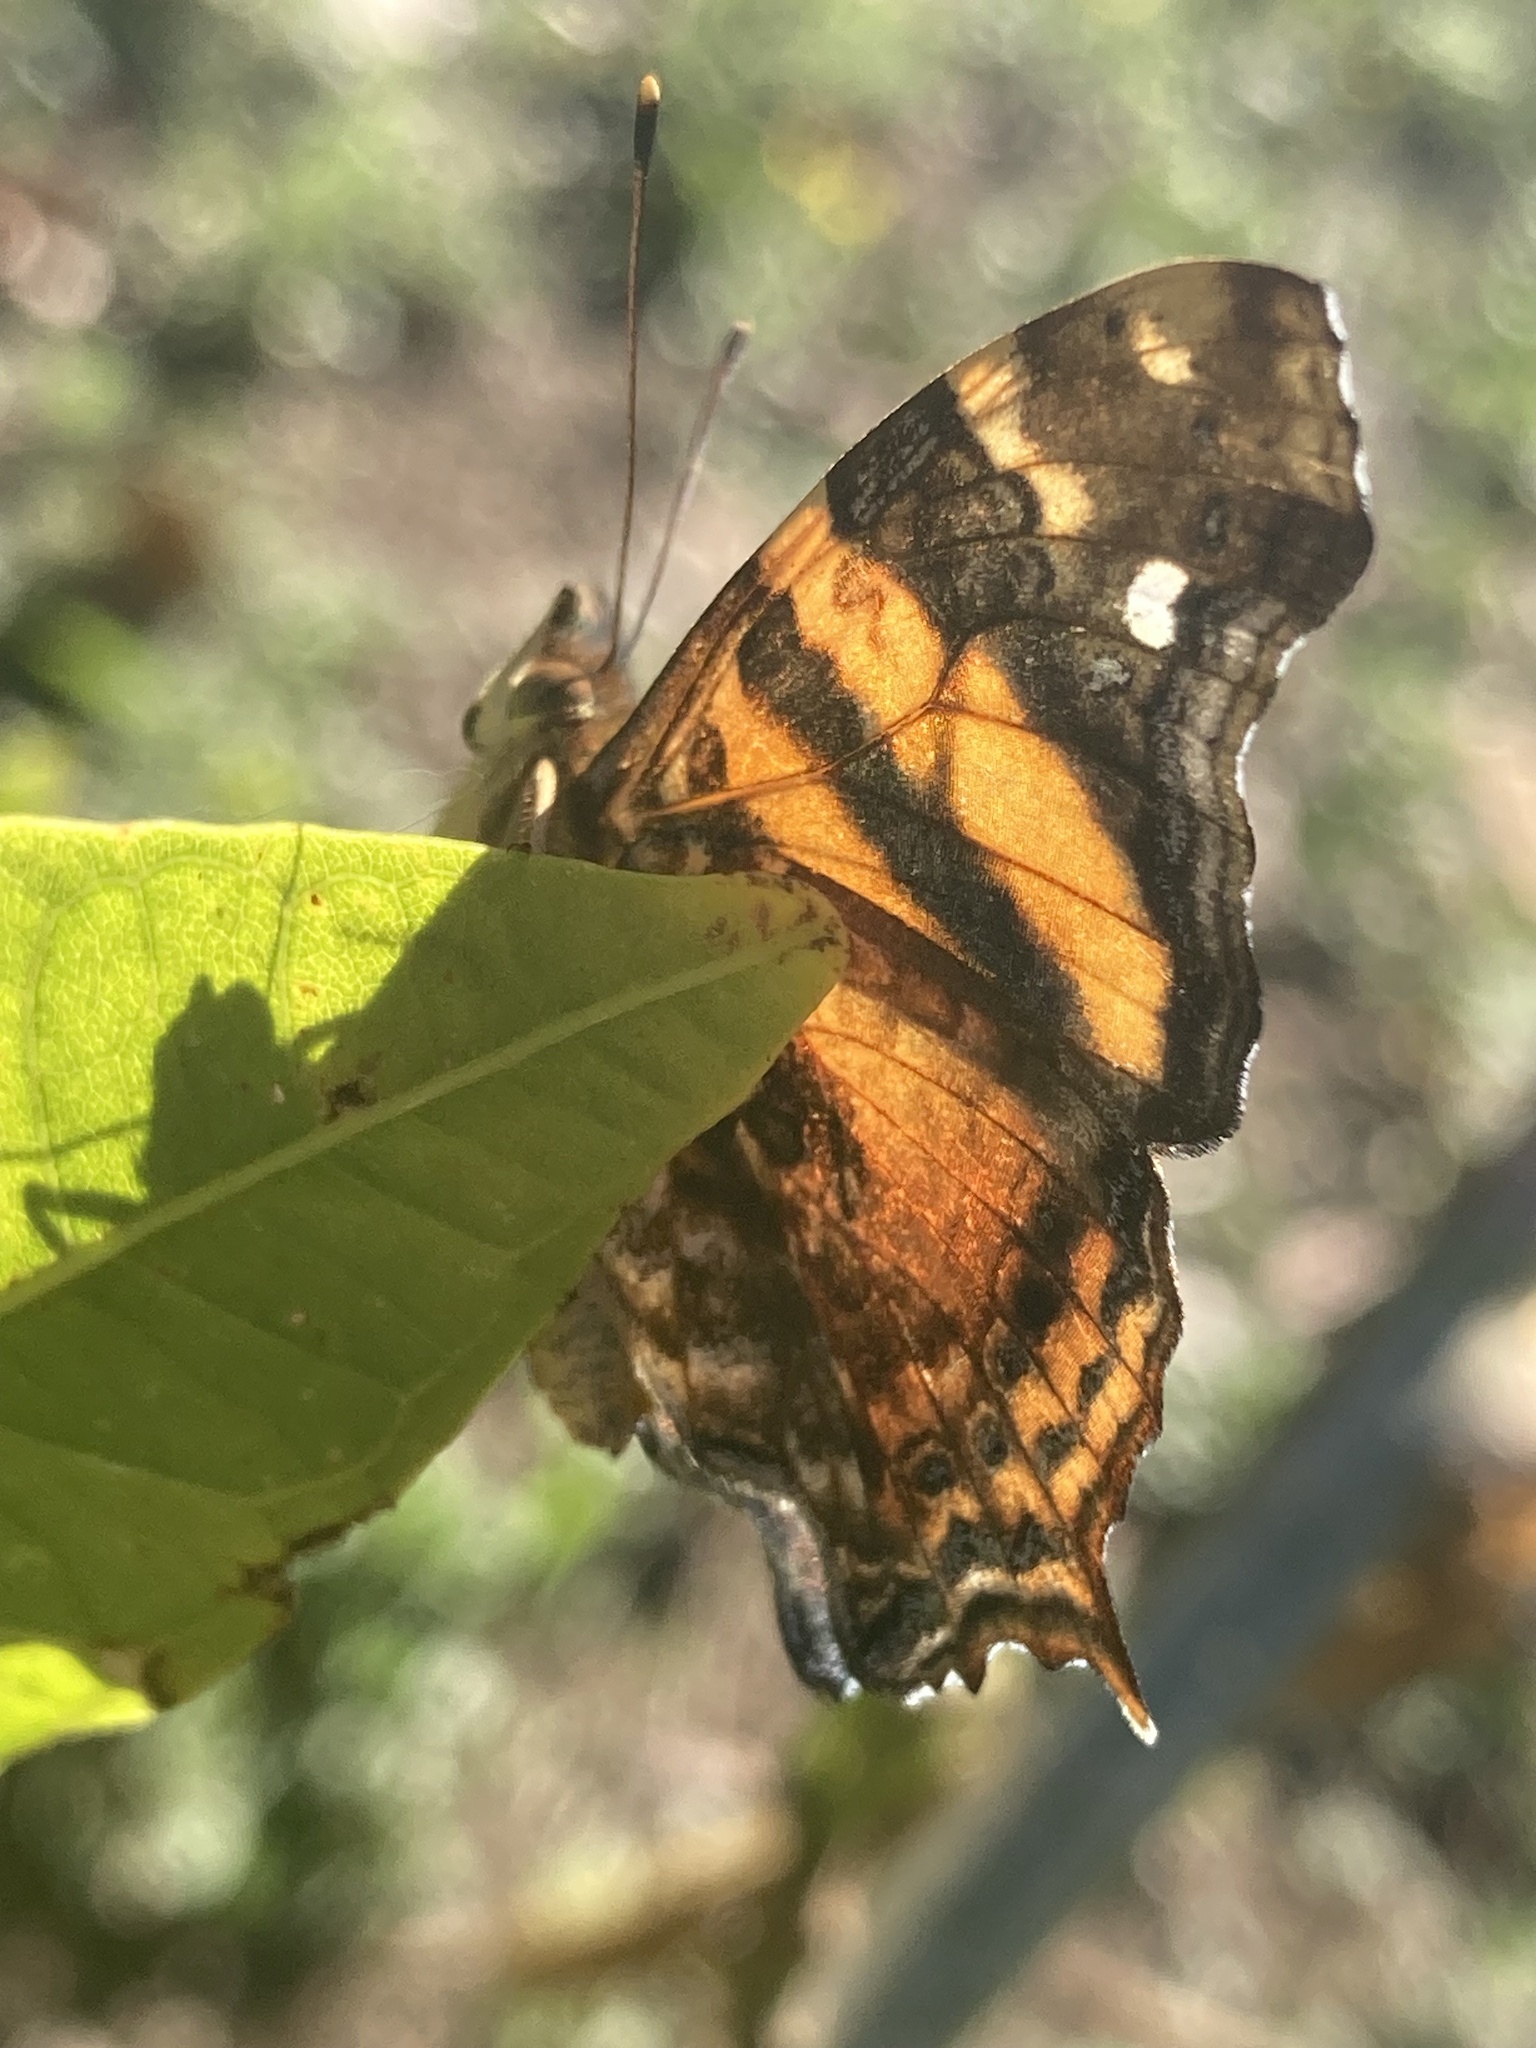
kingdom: Animalia
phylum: Arthropoda
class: Insecta
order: Lepidoptera
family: Nymphalidae
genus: Hypanartia
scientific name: Hypanartia bella
